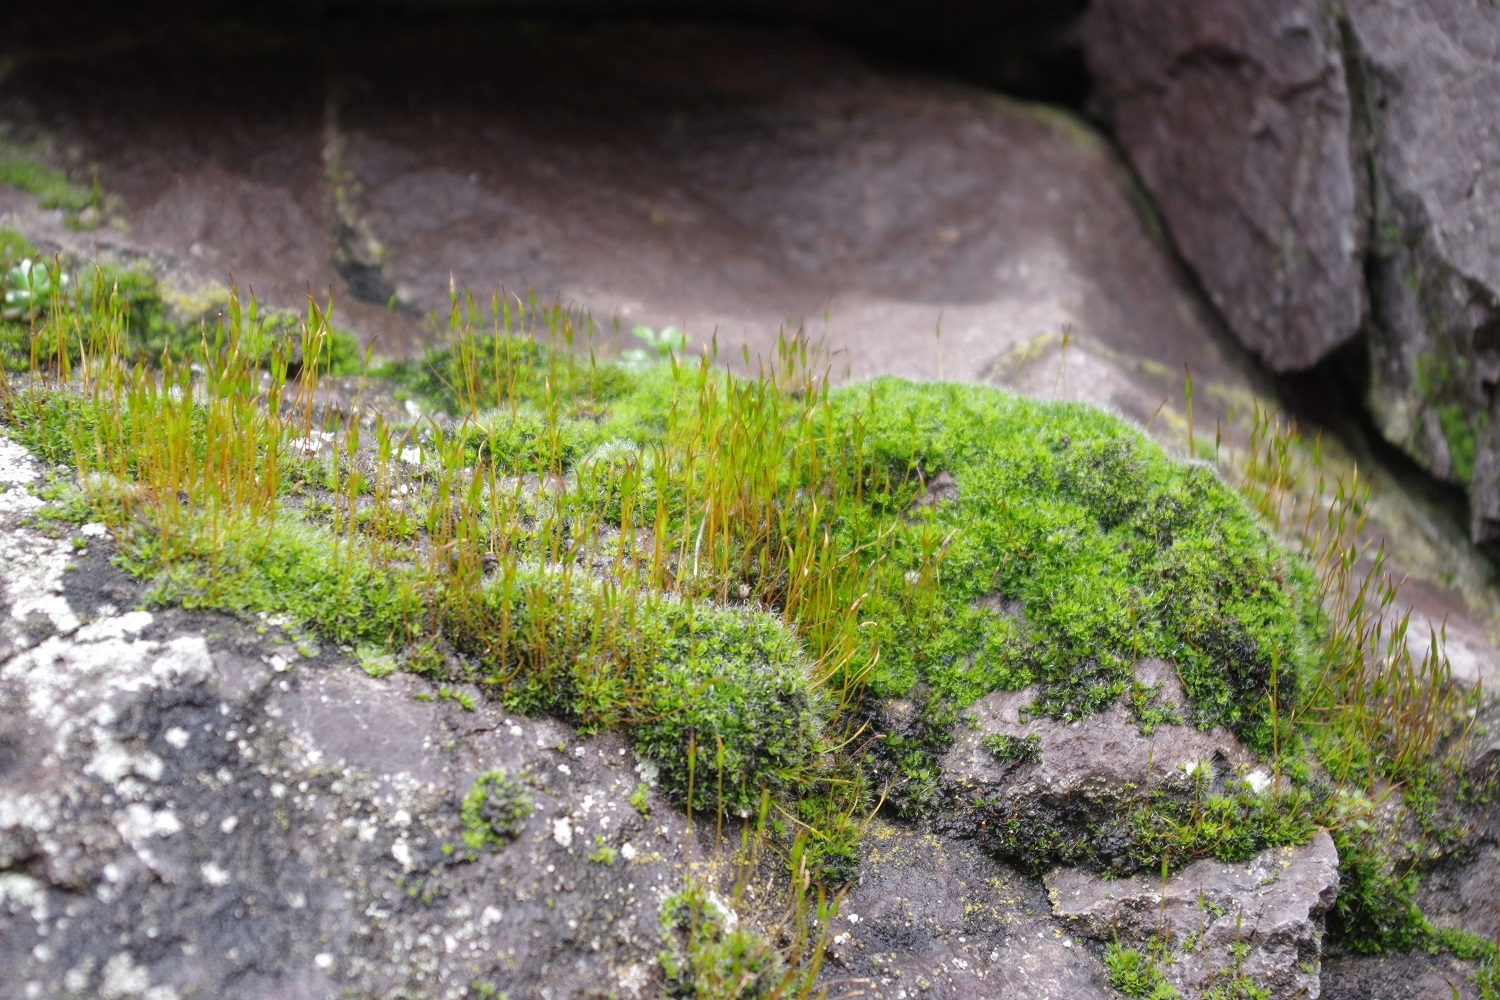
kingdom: Plantae
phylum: Bryophyta
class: Bryopsida
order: Pottiales
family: Pottiaceae
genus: Tortula
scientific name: Tortula muralis
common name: Wall screw-moss
